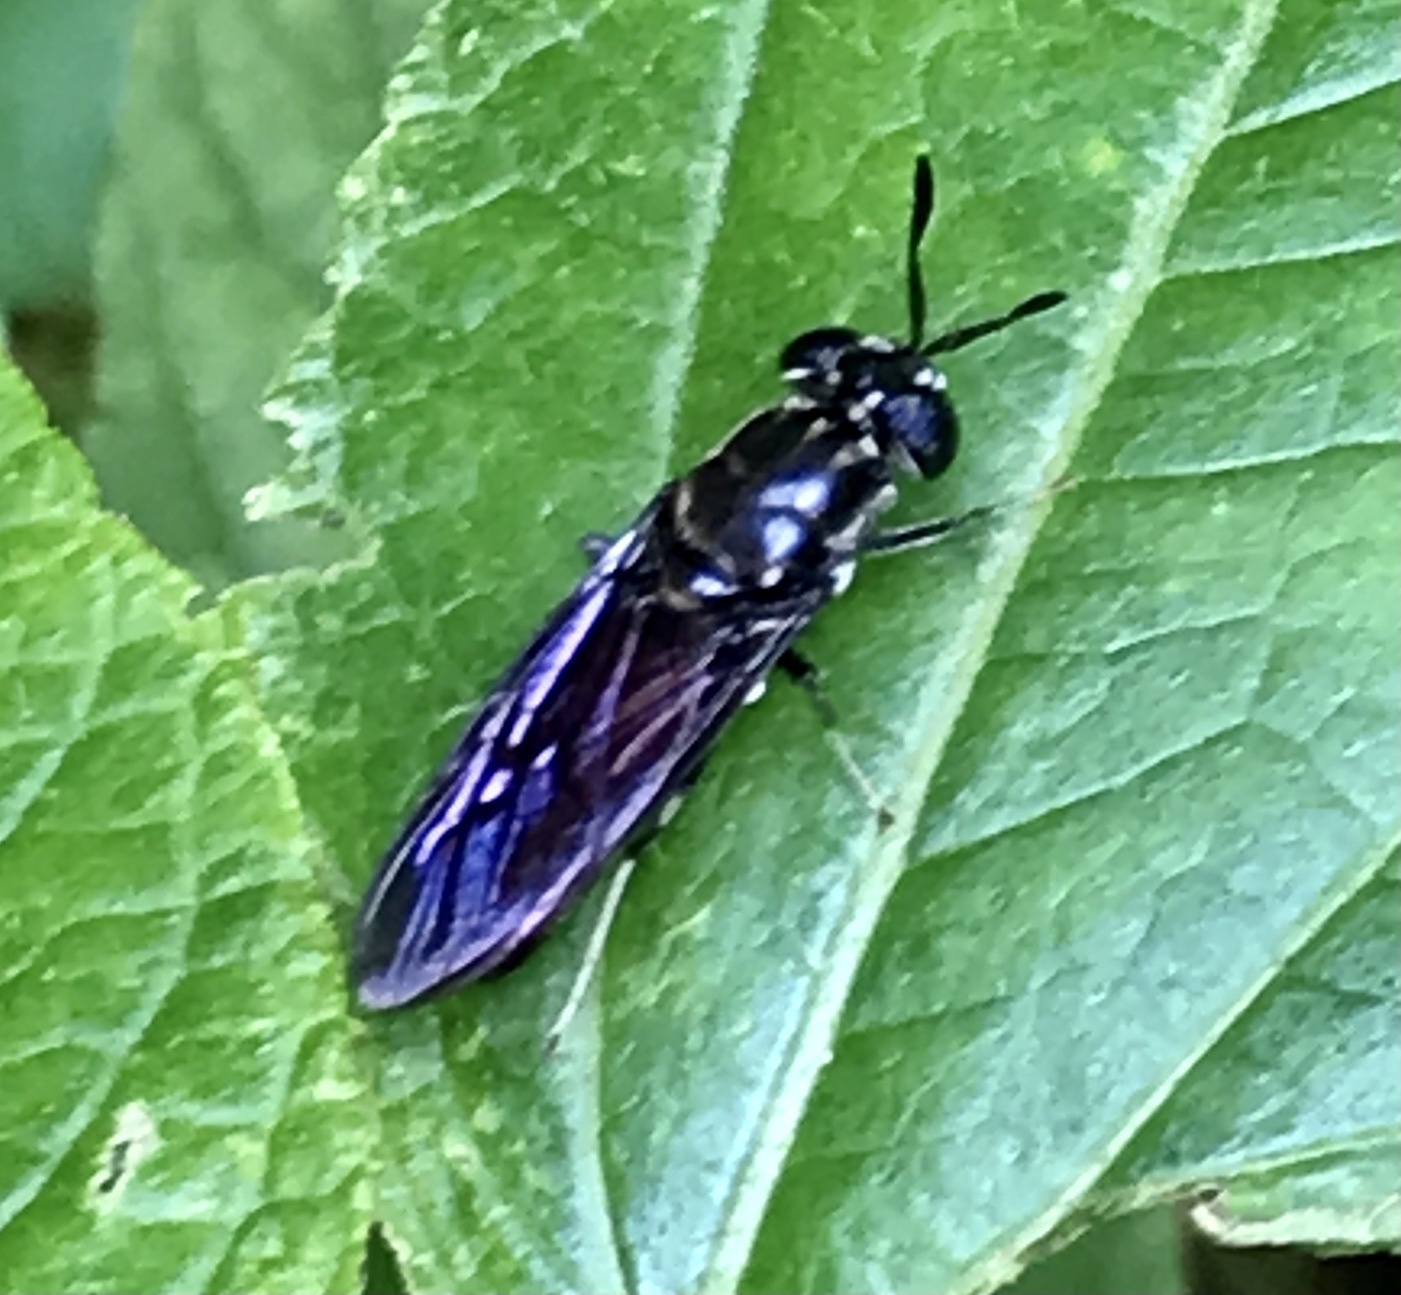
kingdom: Animalia
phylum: Arthropoda
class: Insecta
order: Diptera
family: Stratiomyidae
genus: Hermetia
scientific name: Hermetia illucens
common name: Black soldier fly
